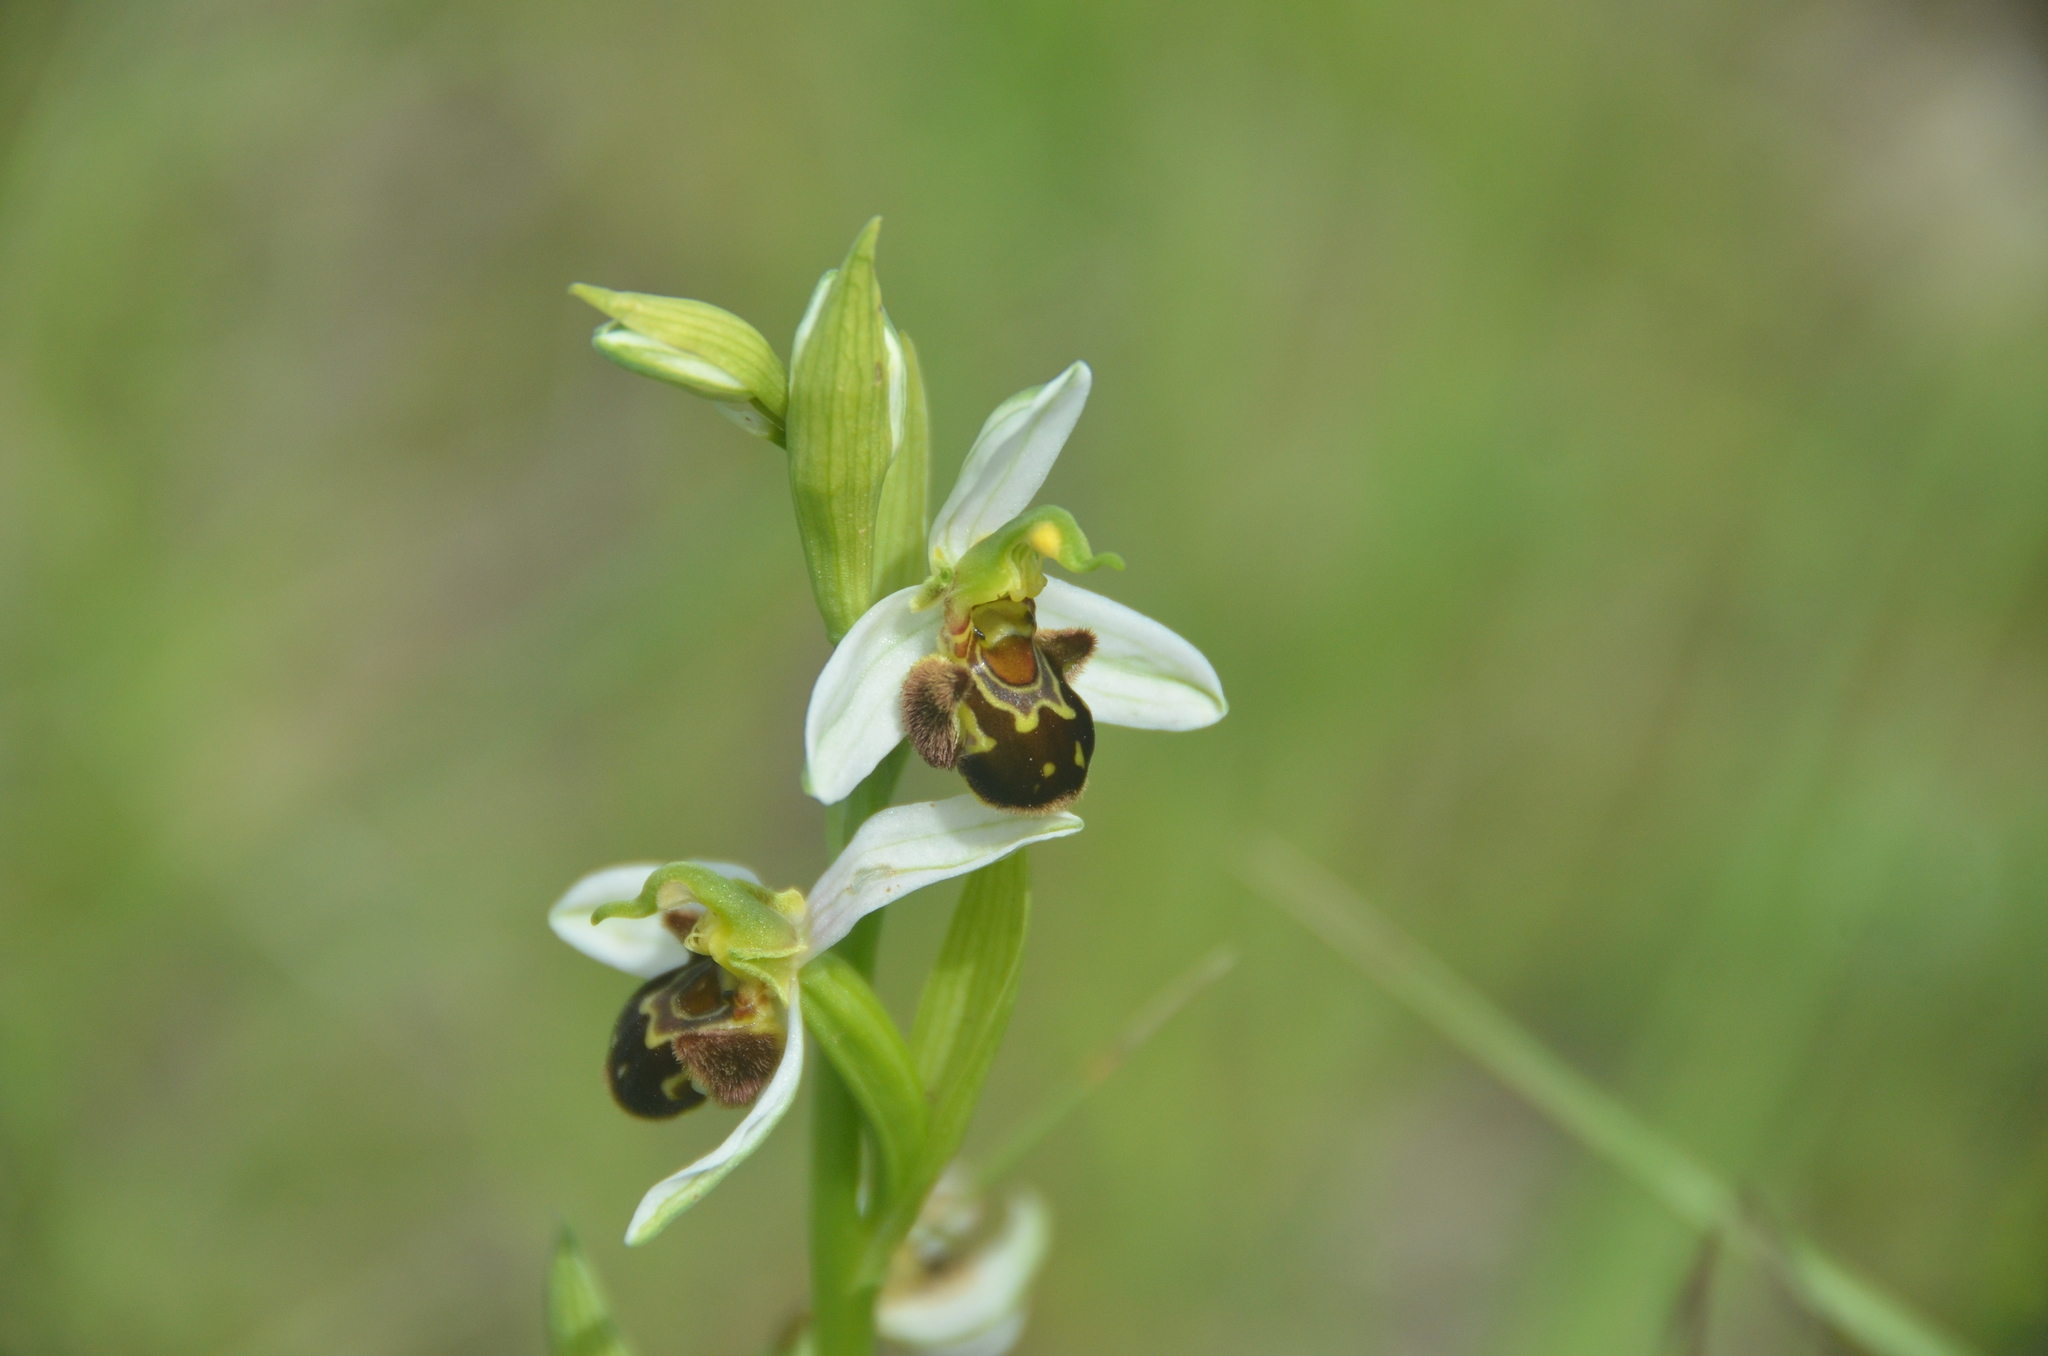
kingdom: Plantae
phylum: Tracheophyta
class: Liliopsida
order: Asparagales
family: Orchidaceae
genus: Ophrys
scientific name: Ophrys apifera
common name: Bee orchid
